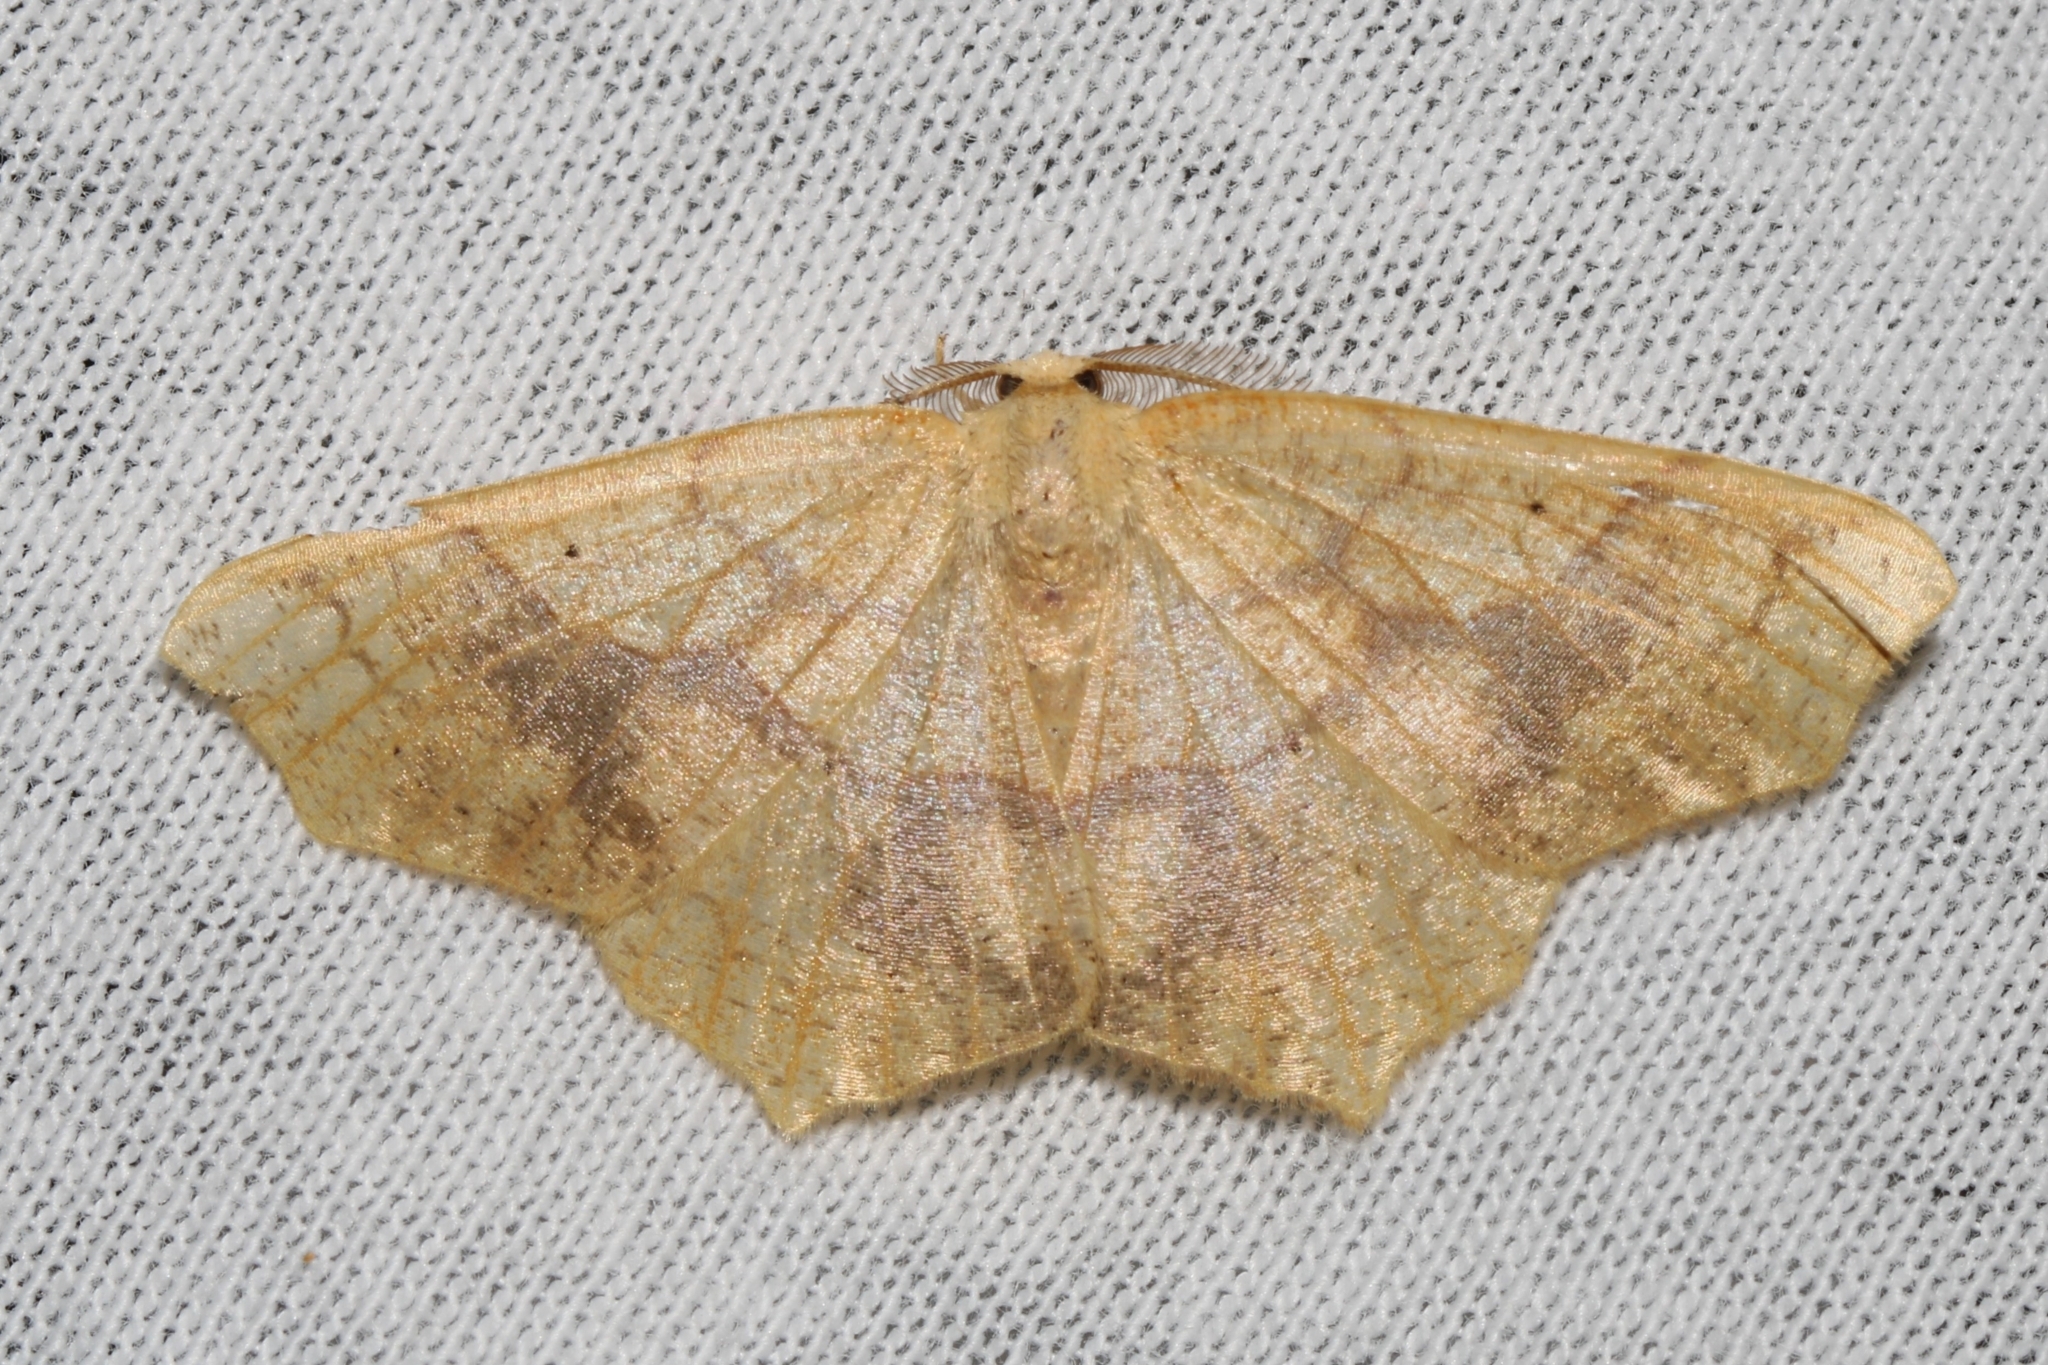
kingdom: Animalia
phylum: Arthropoda
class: Insecta
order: Lepidoptera
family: Geometridae
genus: Besma
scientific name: Besma quercivoraria
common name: Oak besma
